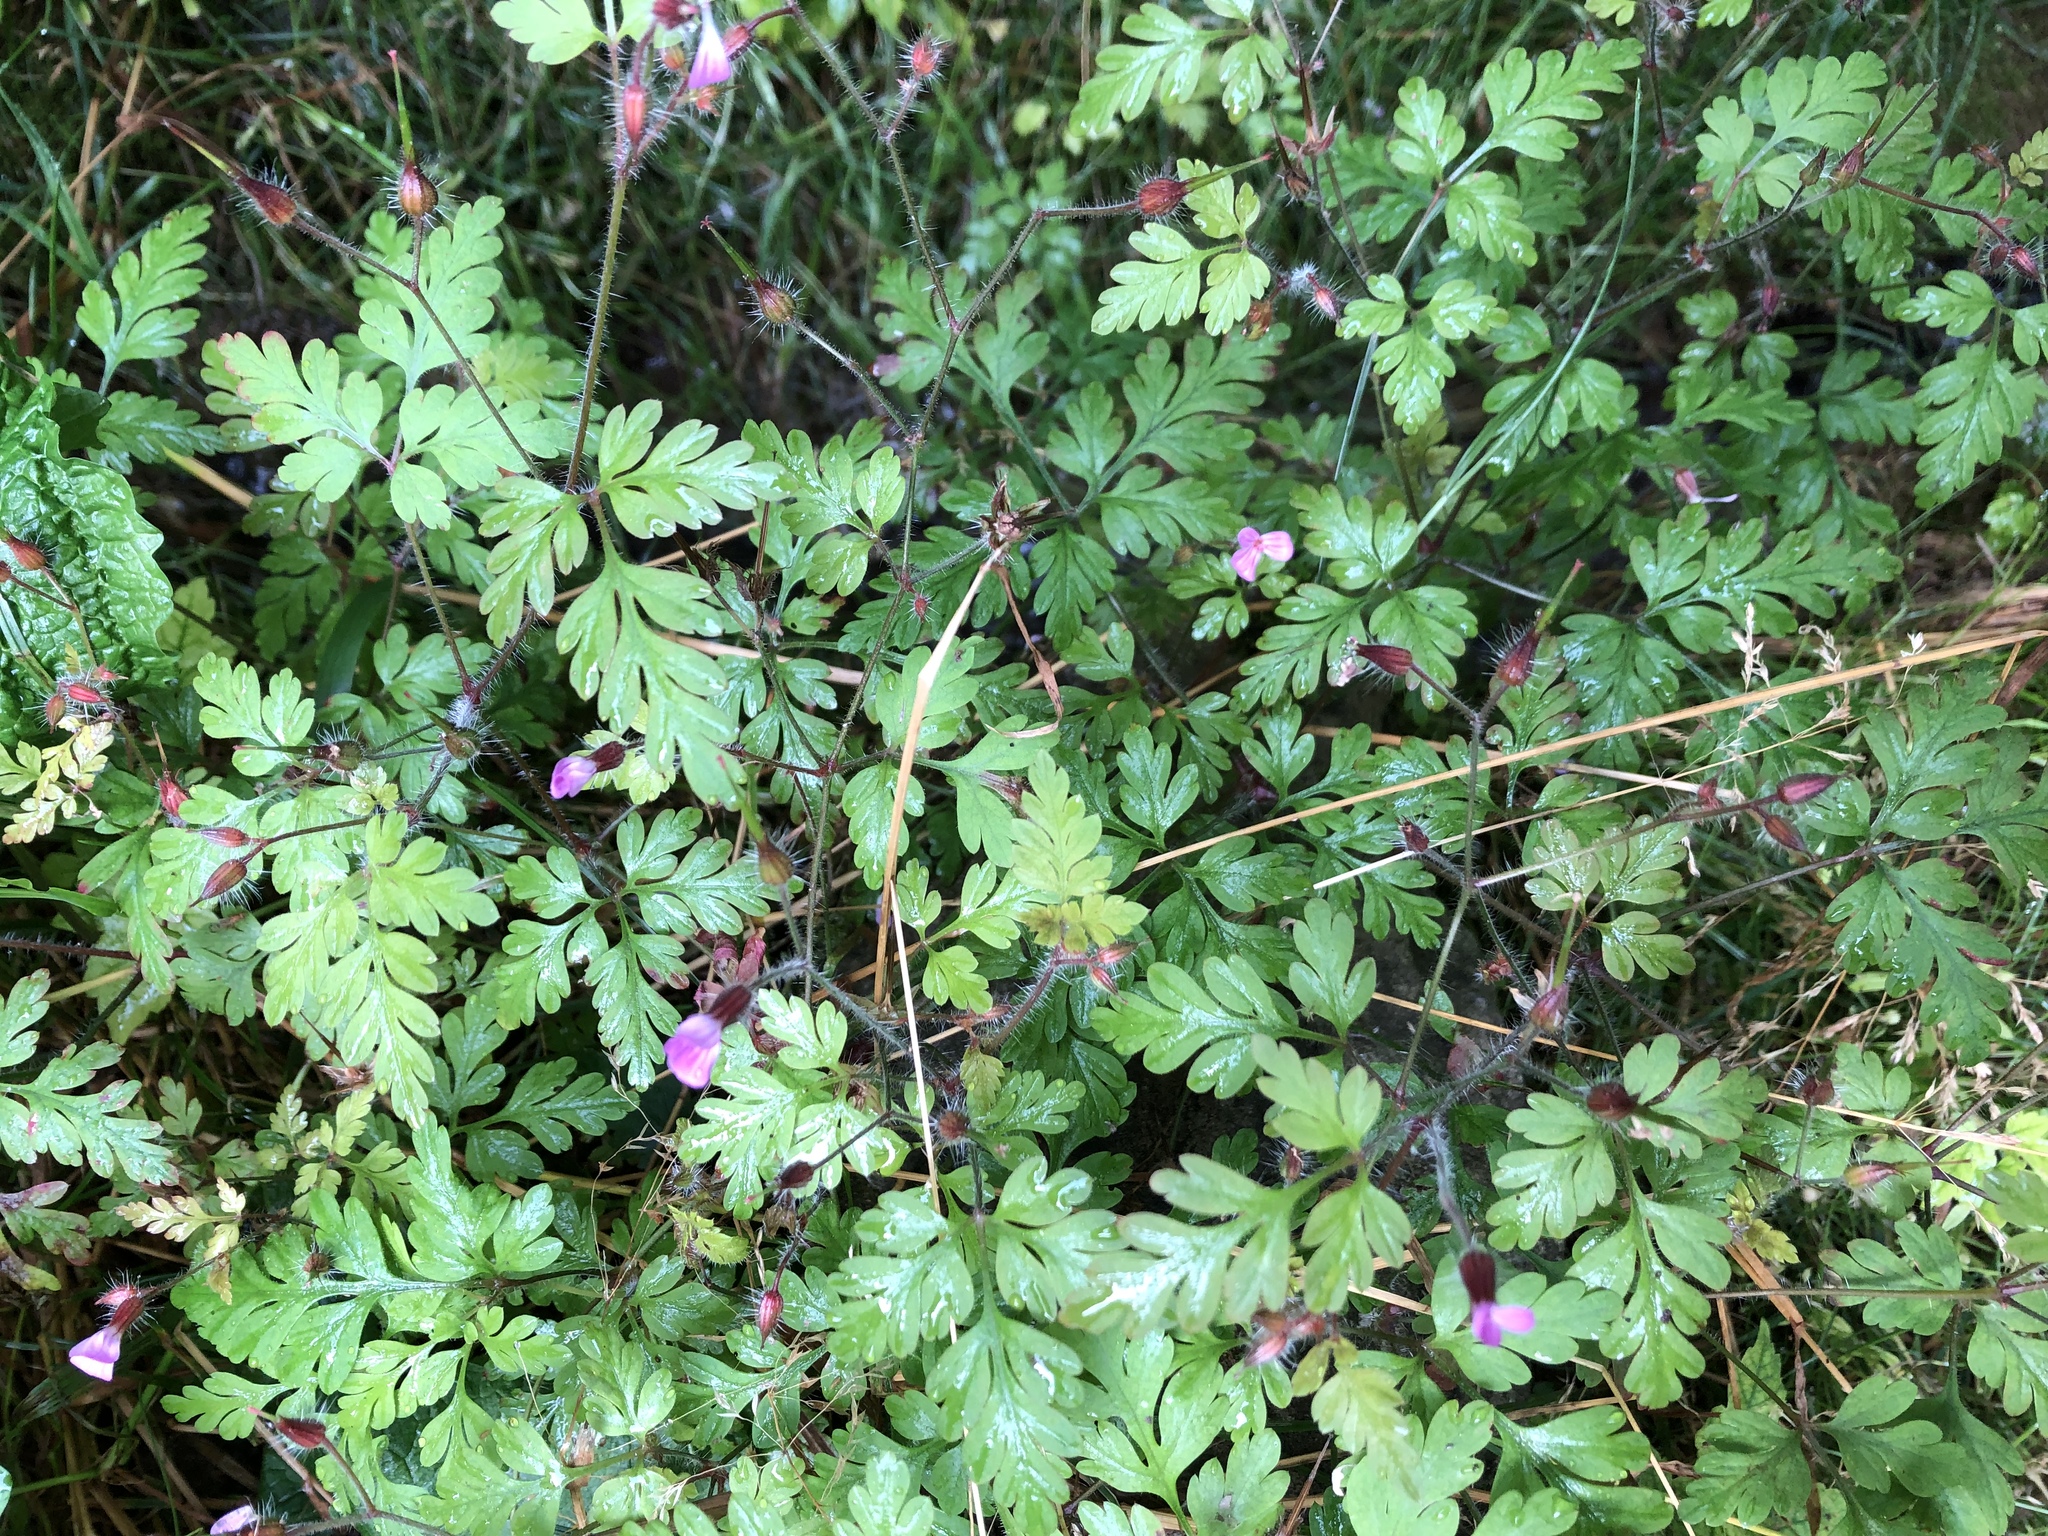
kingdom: Plantae
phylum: Tracheophyta
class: Magnoliopsida
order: Geraniales
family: Geraniaceae
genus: Geranium
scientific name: Geranium robertianum
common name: Herb-robert
